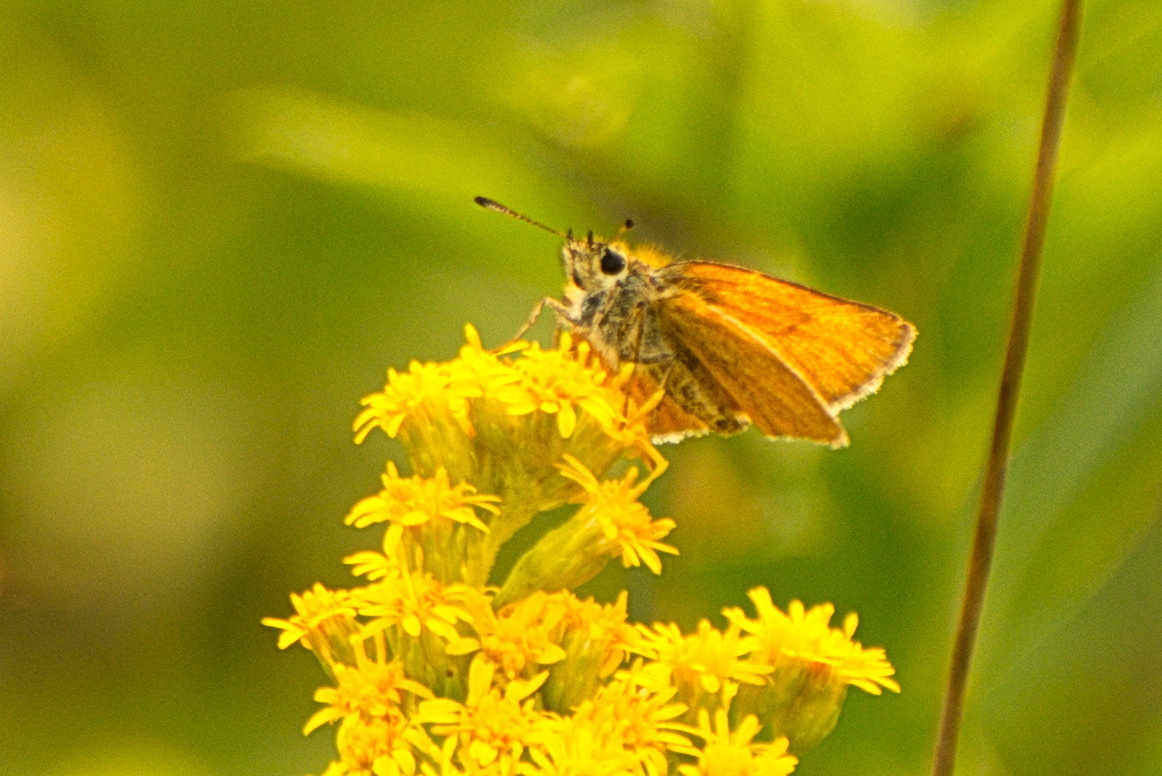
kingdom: Animalia
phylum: Arthropoda
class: Insecta
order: Lepidoptera
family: Hesperiidae
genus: Thymelicus
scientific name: Thymelicus lineola
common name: Essex skipper
